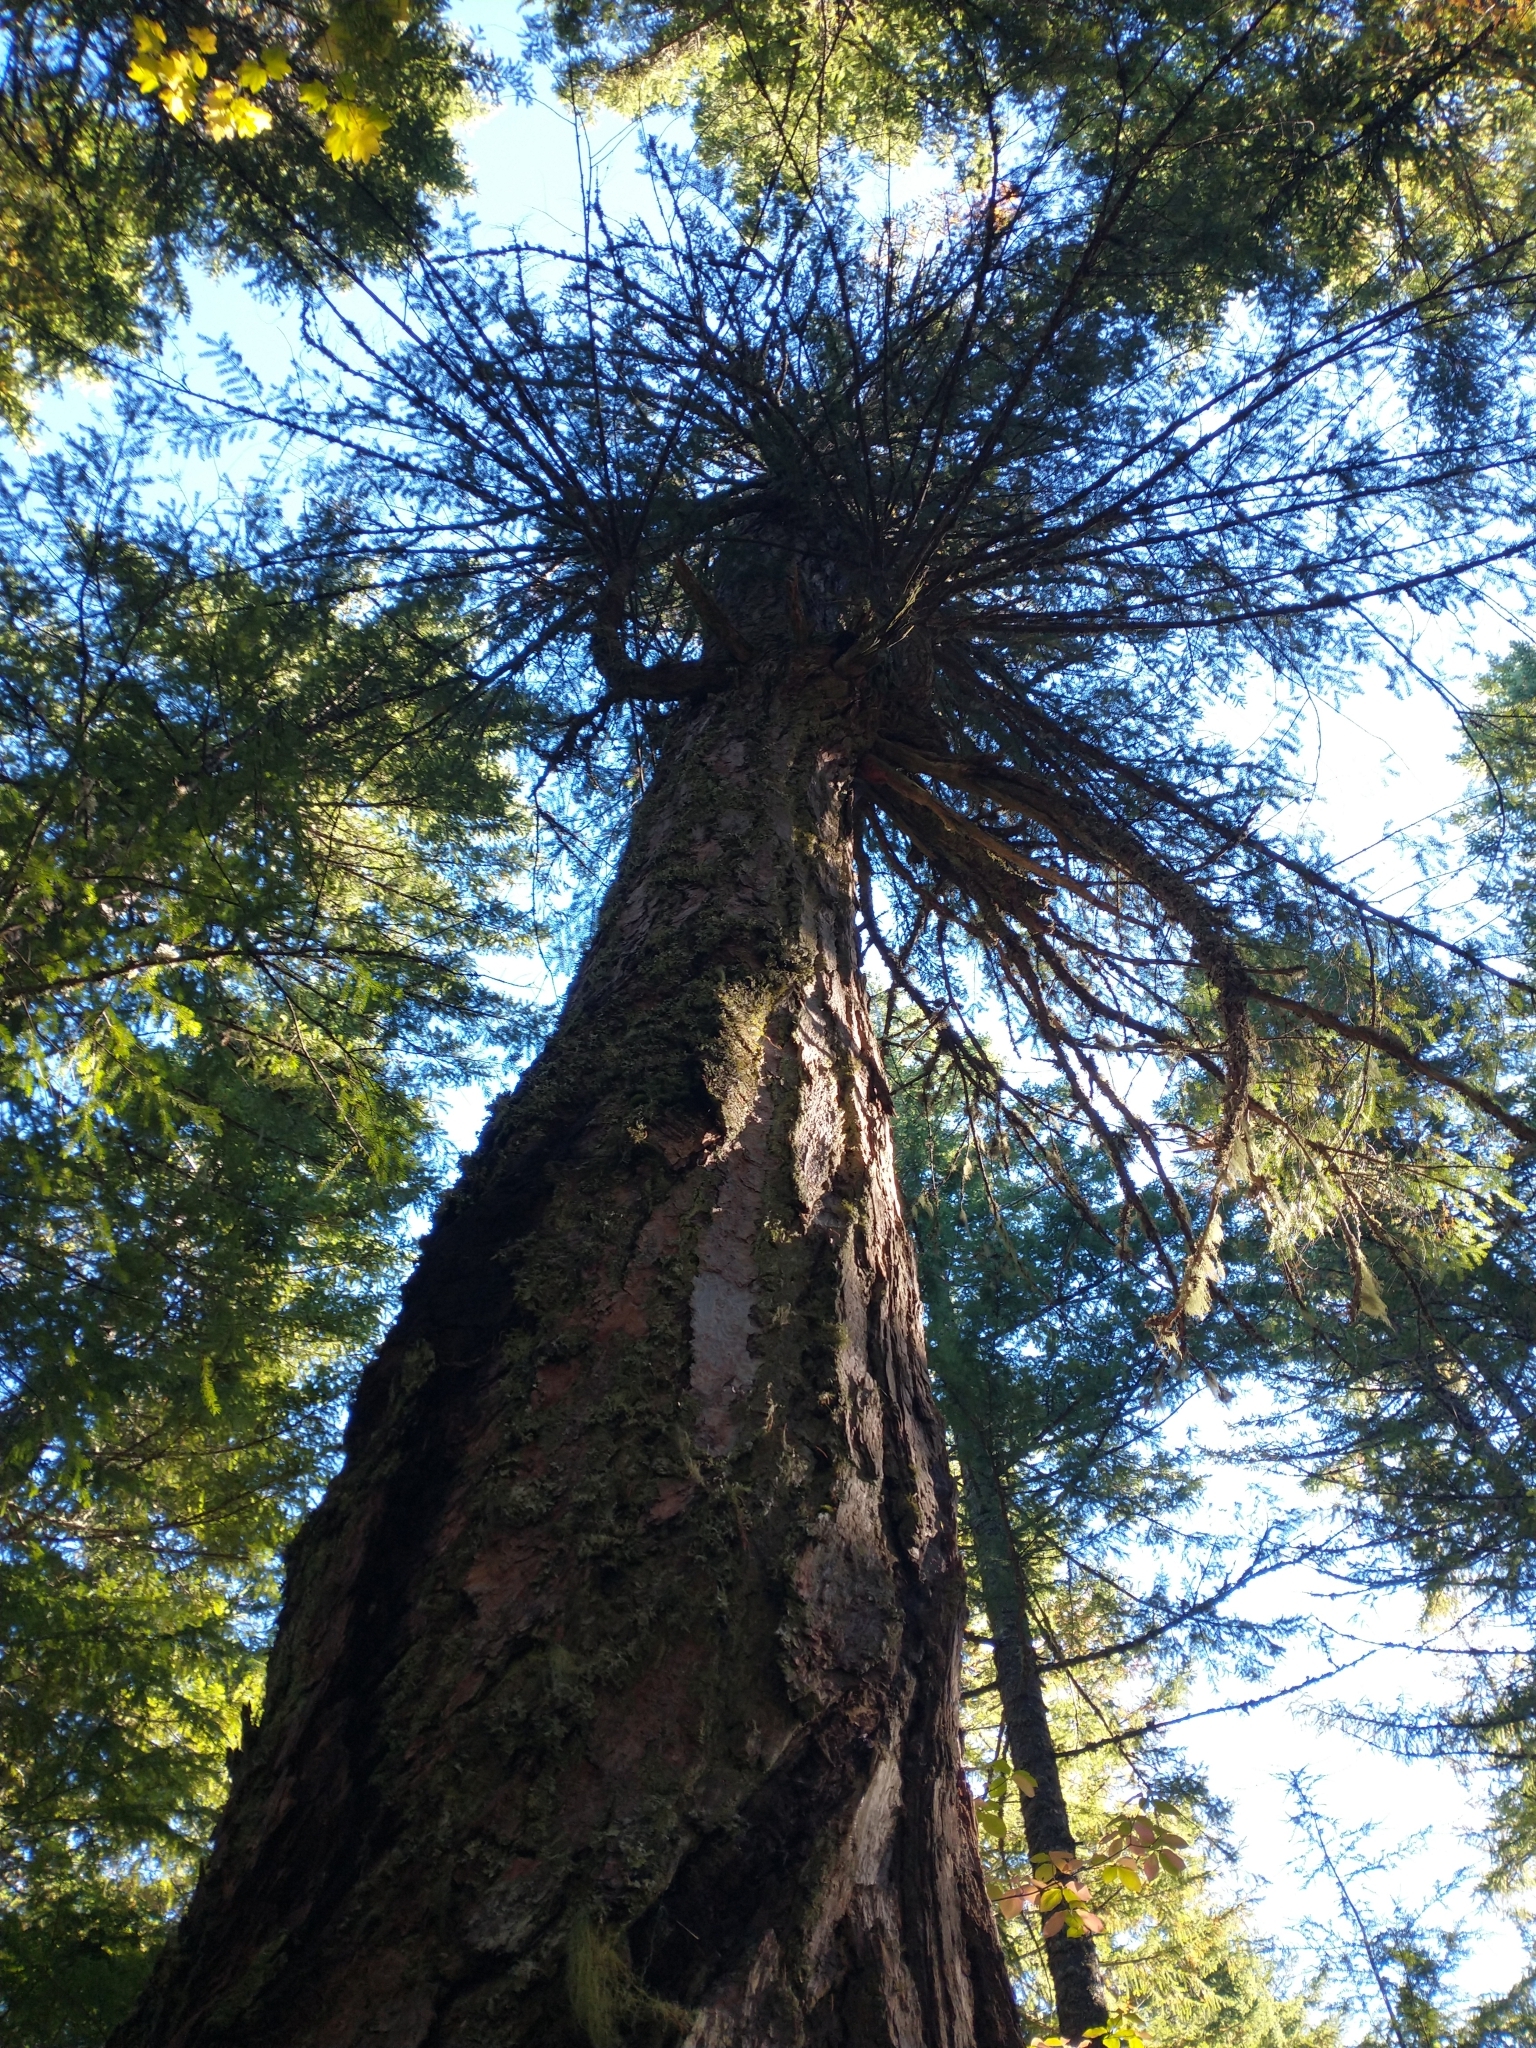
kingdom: Plantae
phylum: Tracheophyta
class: Pinopsida
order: Pinales
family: Pinaceae
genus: Pseudotsuga
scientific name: Pseudotsuga menziesii
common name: Douglas fir
